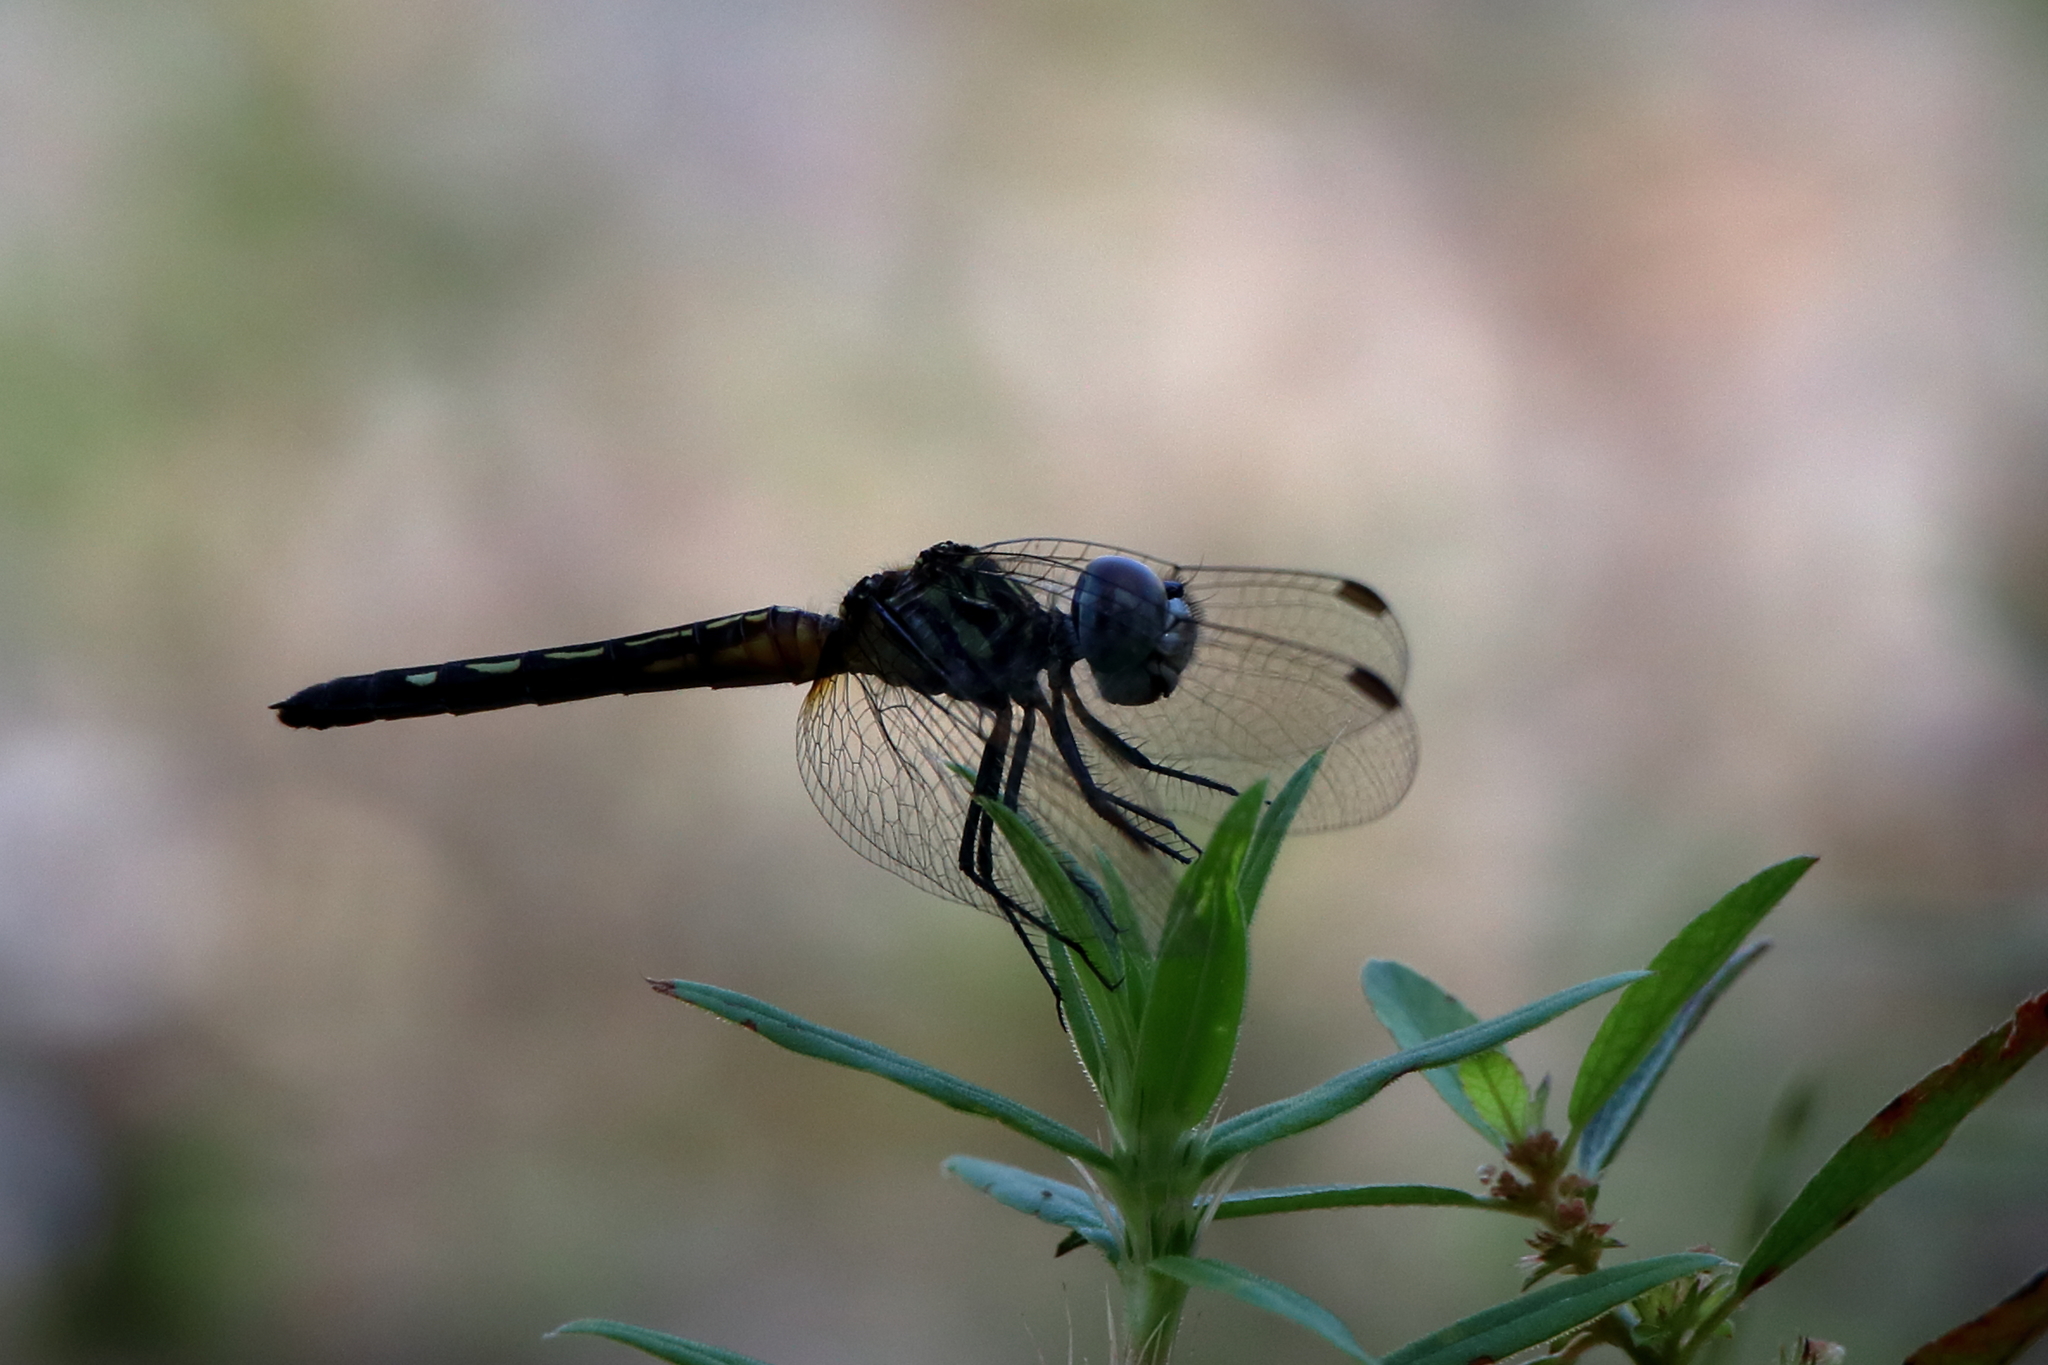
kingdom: Animalia
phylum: Arthropoda
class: Insecta
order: Odonata
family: Libellulidae
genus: Pachydiplax
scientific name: Pachydiplax longipennis
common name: Blue dasher
